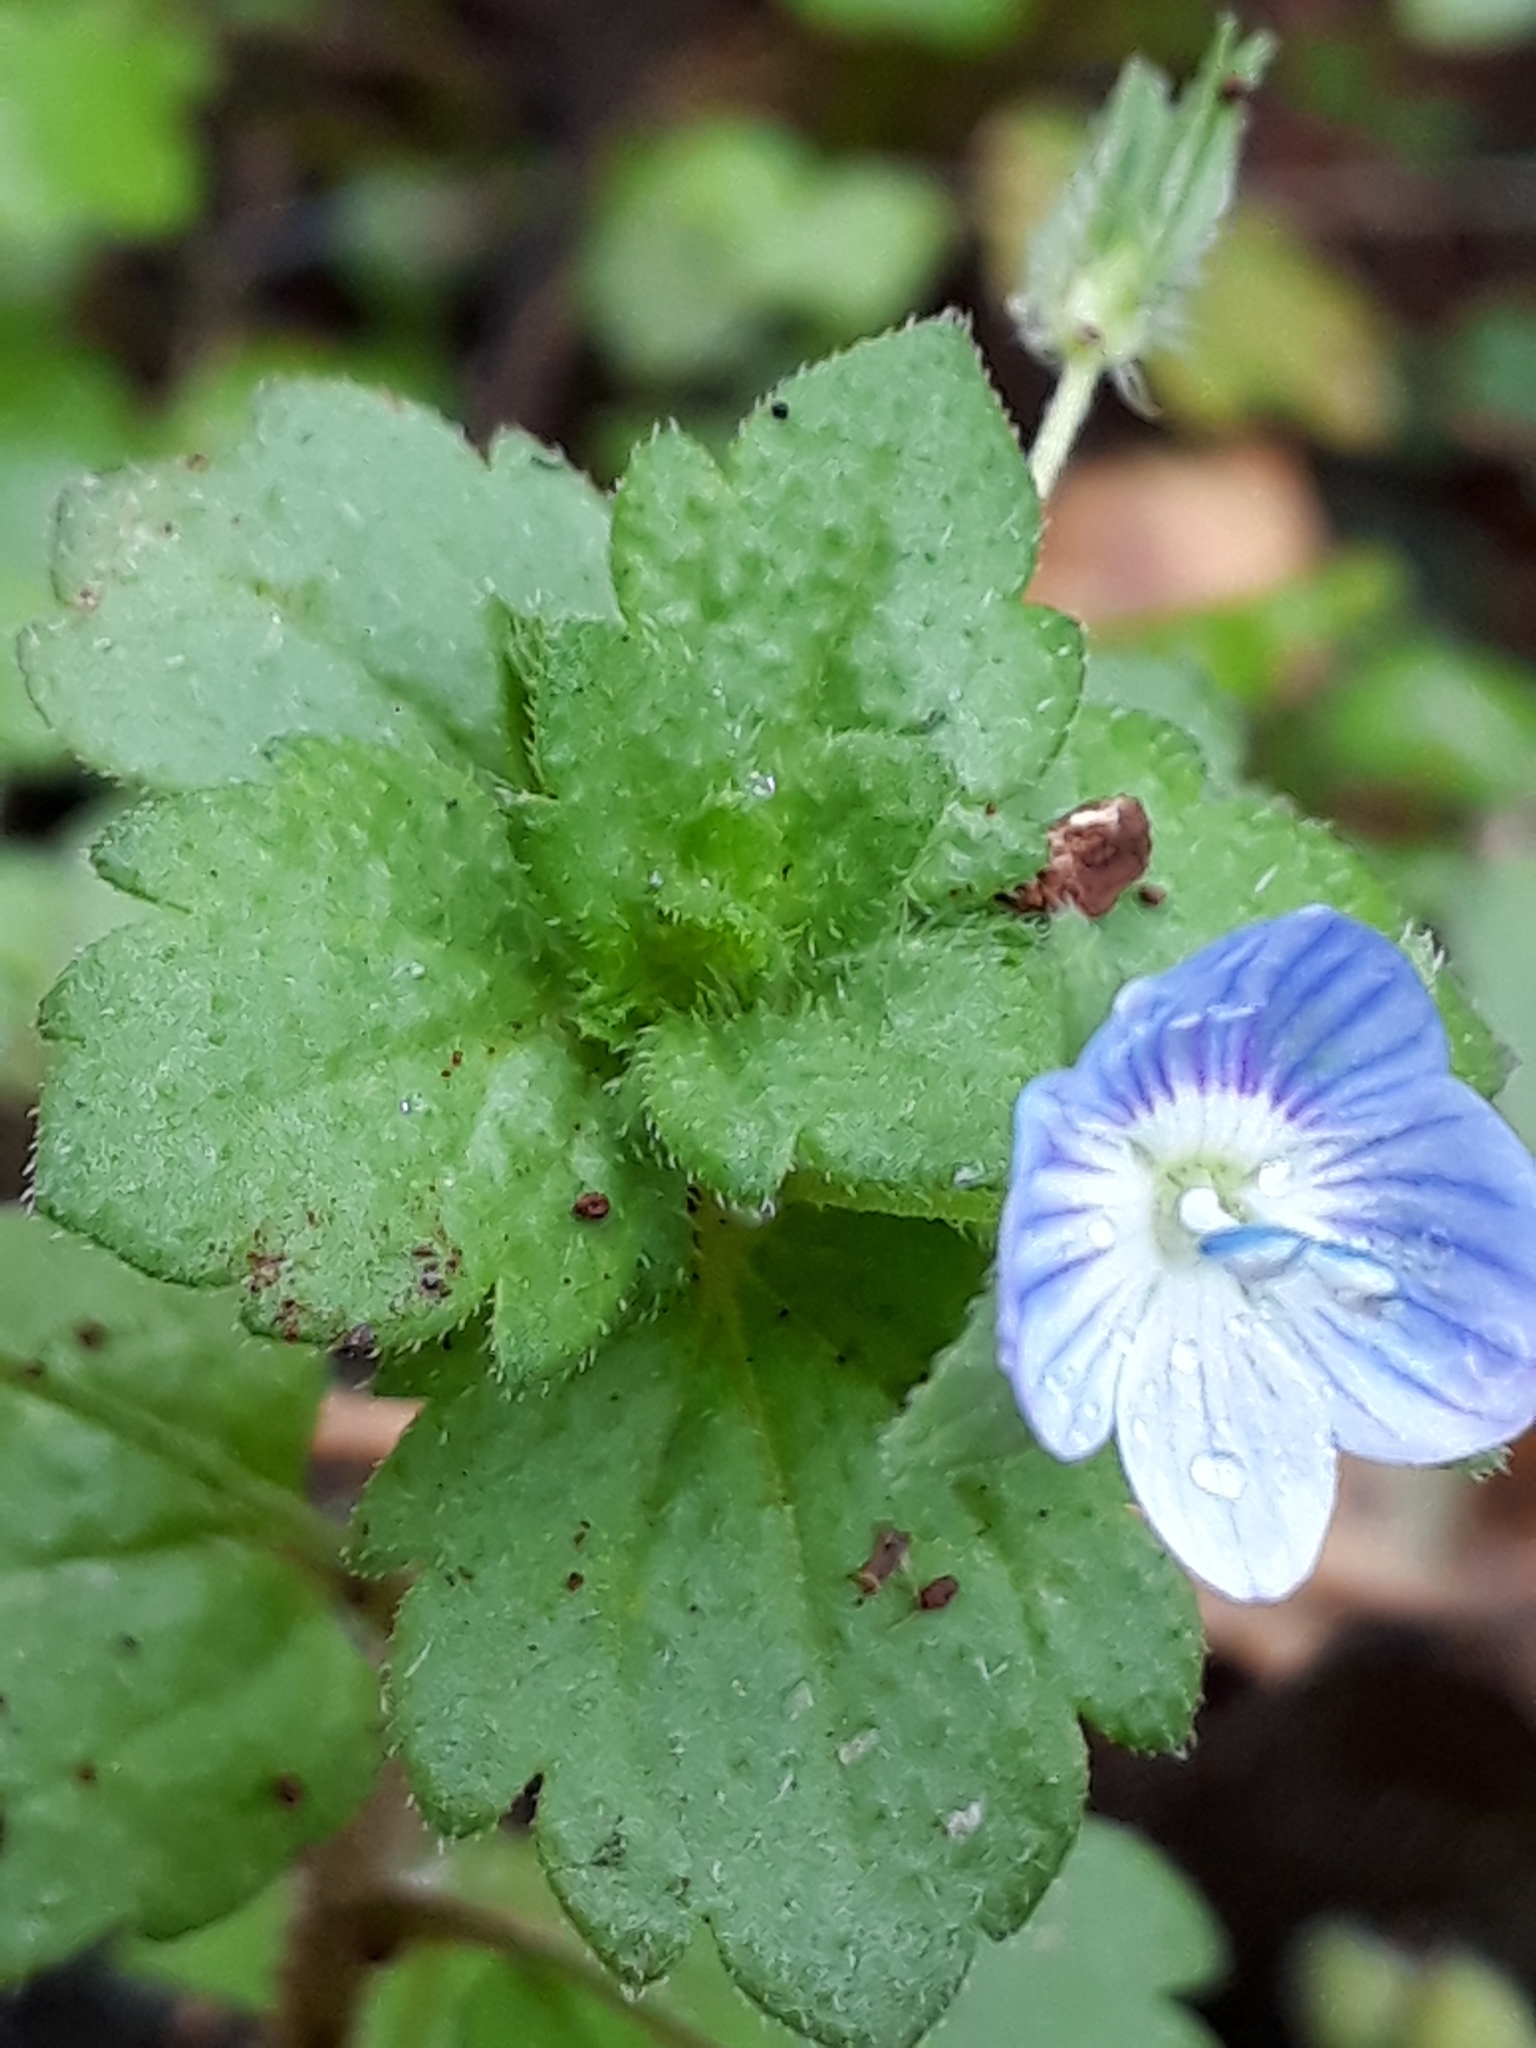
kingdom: Plantae
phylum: Tracheophyta
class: Magnoliopsida
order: Lamiales
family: Plantaginaceae
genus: Veronica
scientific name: Veronica persica
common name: Common field-speedwell
